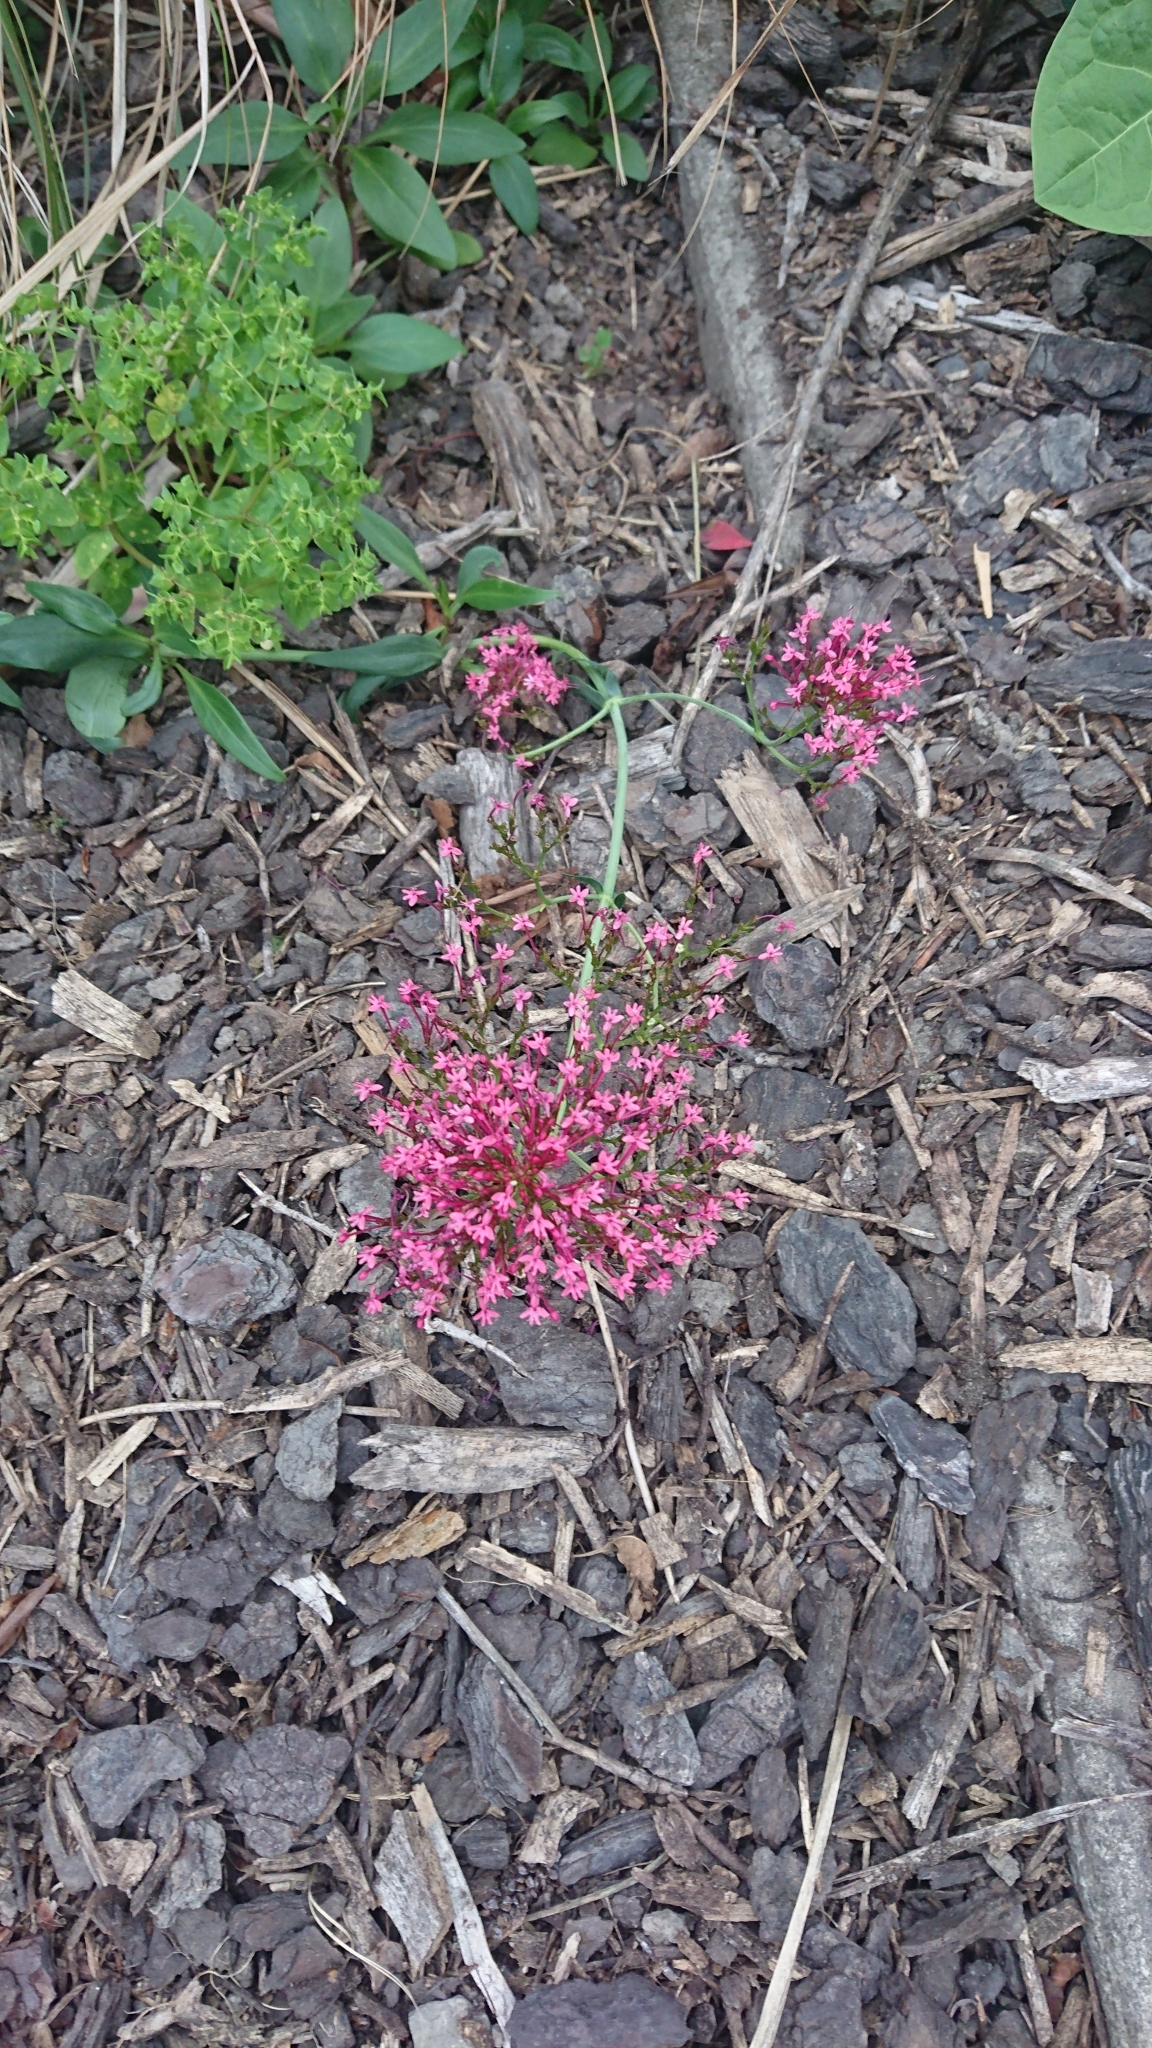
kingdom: Plantae
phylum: Tracheophyta
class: Magnoliopsida
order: Dipsacales
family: Caprifoliaceae
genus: Centranthus
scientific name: Centranthus ruber
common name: Red valerian
